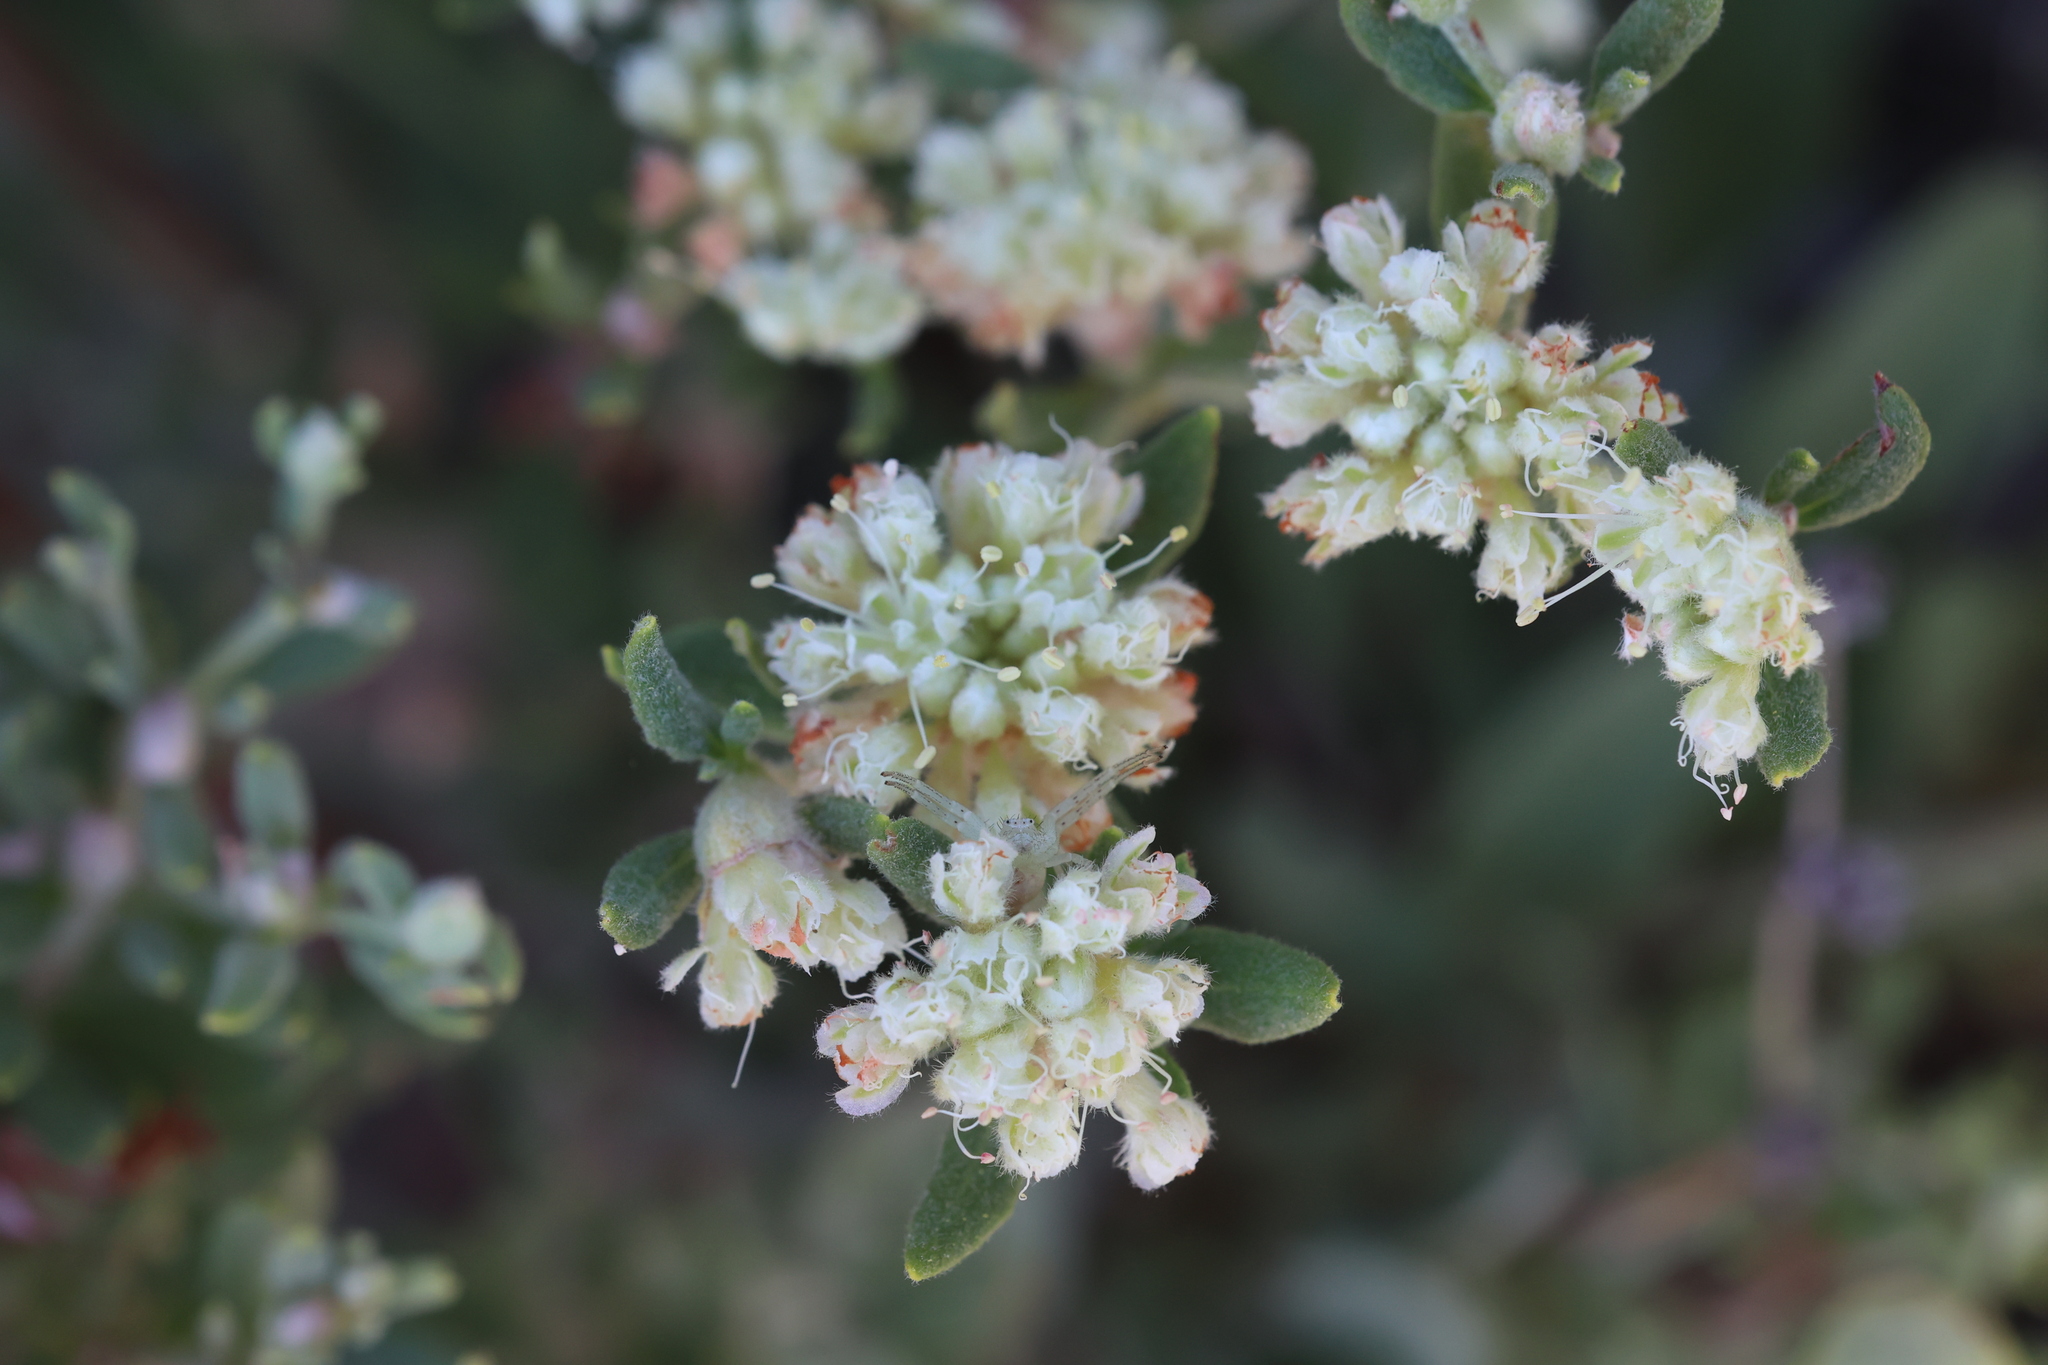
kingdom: Plantae
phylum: Tracheophyta
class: Magnoliopsida
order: Caryophyllales
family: Polygonaceae
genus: Eriogonum
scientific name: Eriogonum jamesii
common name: Antelope-sage
